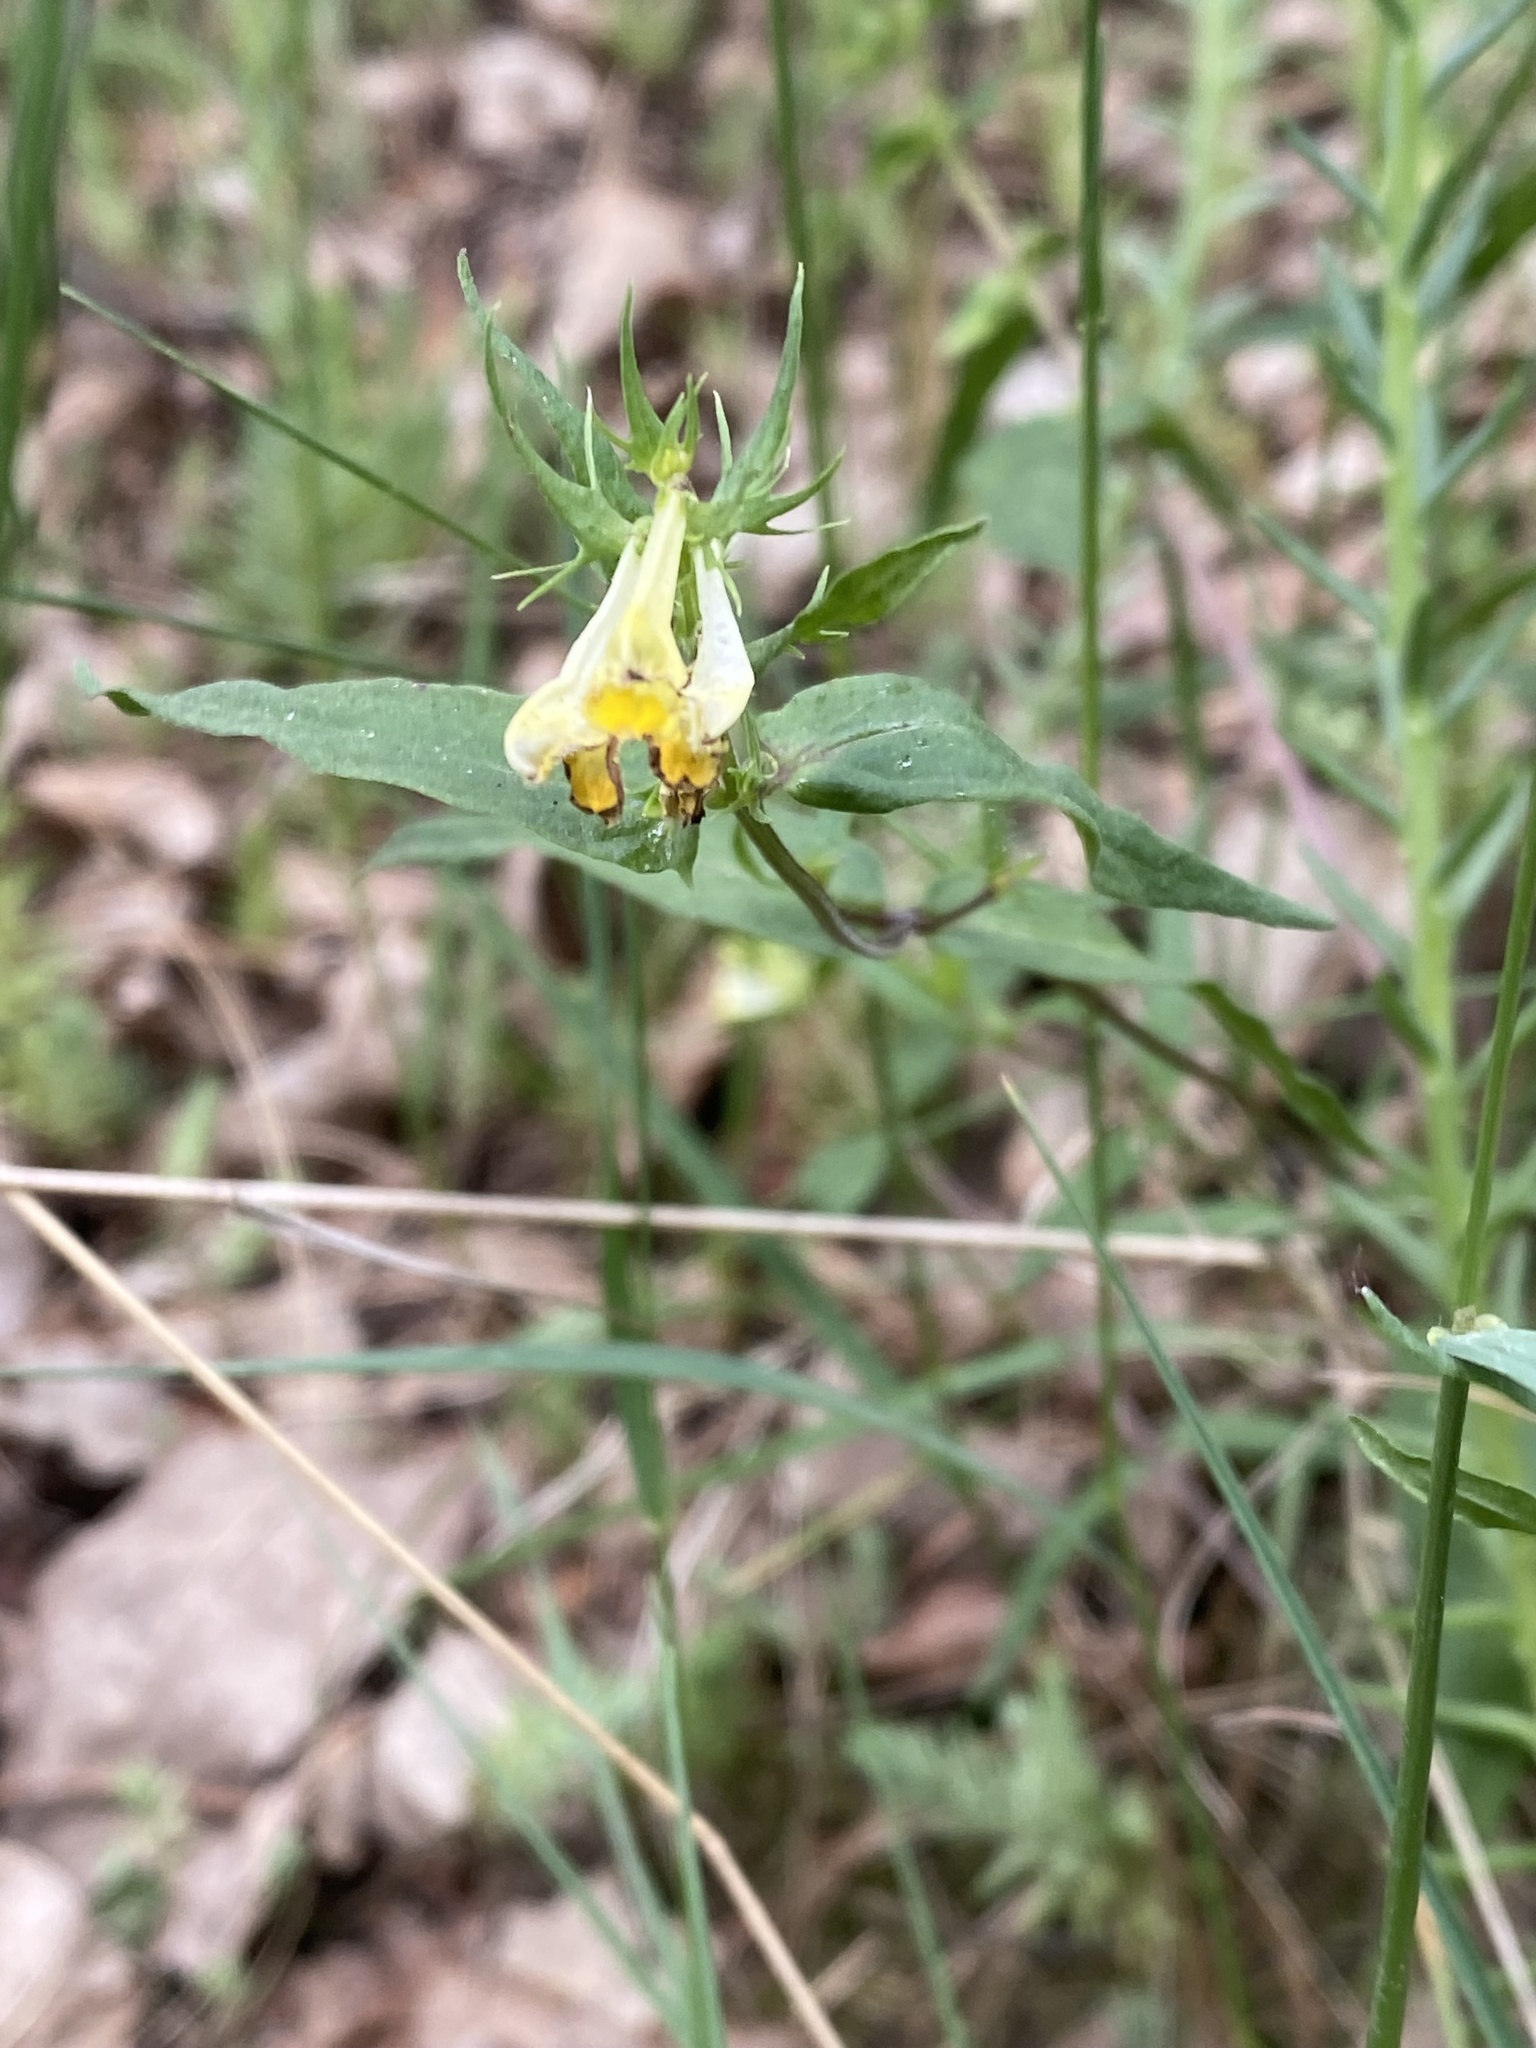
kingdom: Plantae
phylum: Tracheophyta
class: Magnoliopsida
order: Lamiales
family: Orobanchaceae
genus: Melampyrum
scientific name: Melampyrum pratense
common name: Common cow-wheat
